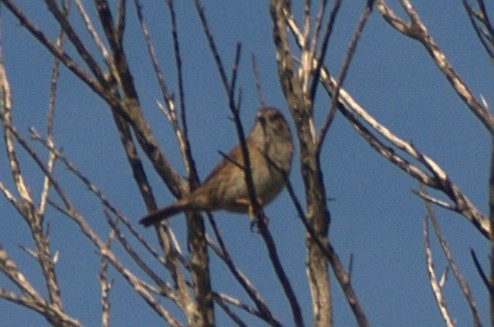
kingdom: Animalia
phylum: Chordata
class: Aves
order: Passeriformes
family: Prunellidae
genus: Prunella
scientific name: Prunella modularis
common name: Dunnock
